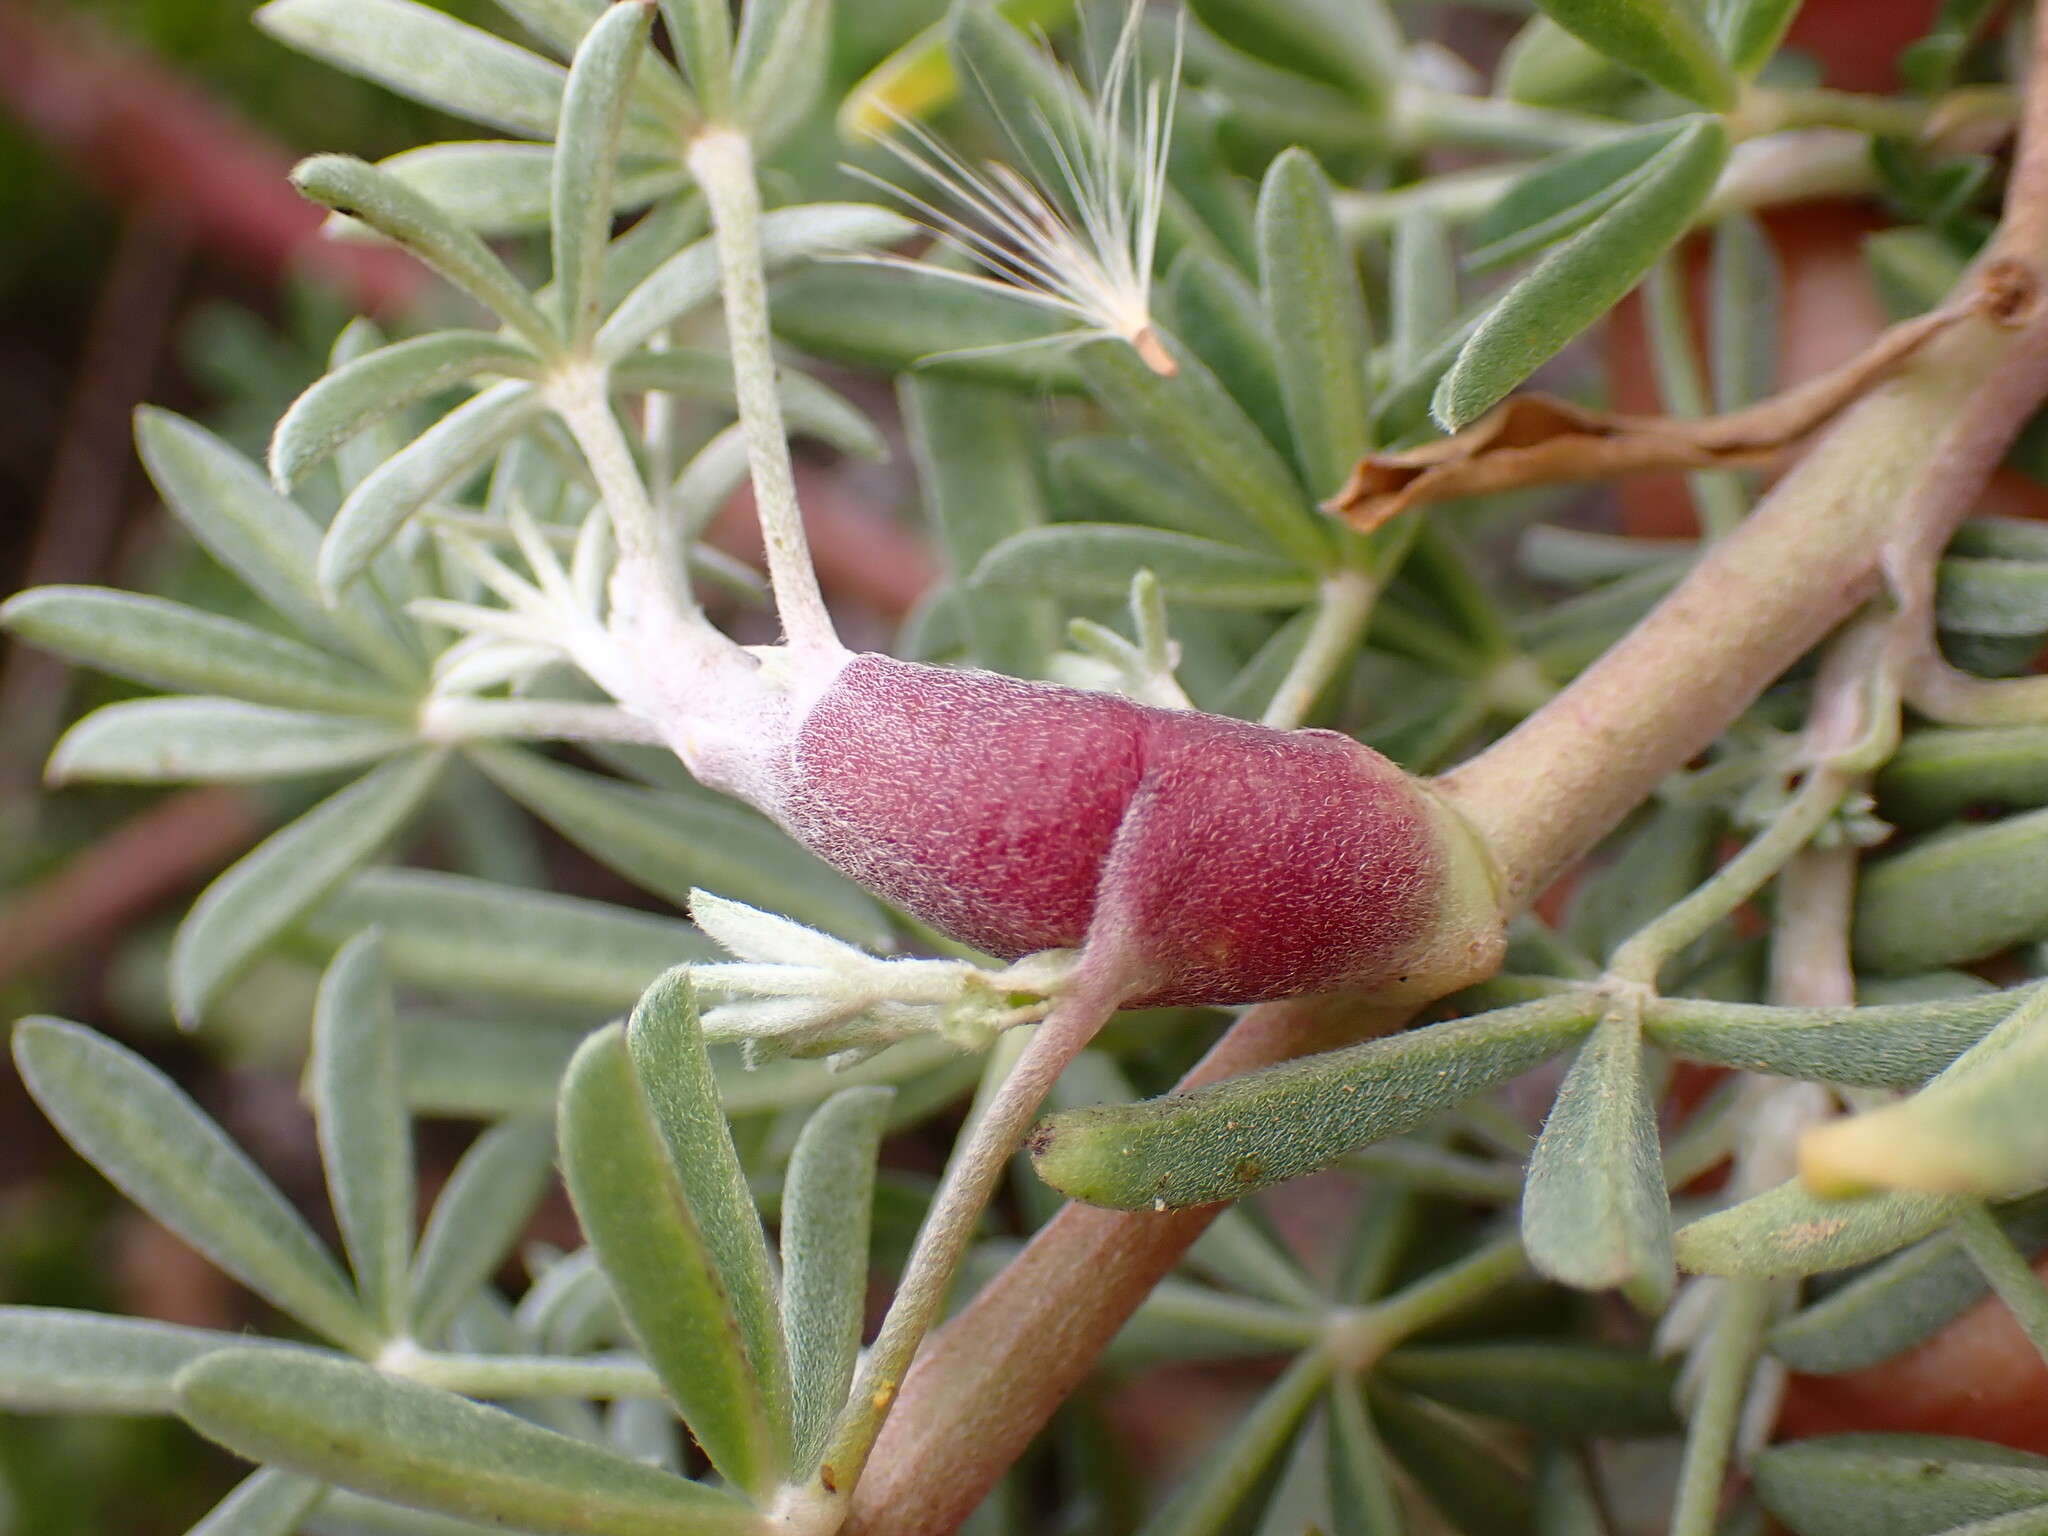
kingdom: Animalia
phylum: Arthropoda
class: Insecta
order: Diptera
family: Cecidomyiidae
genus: Neolasioptera
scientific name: Neolasioptera lupini
